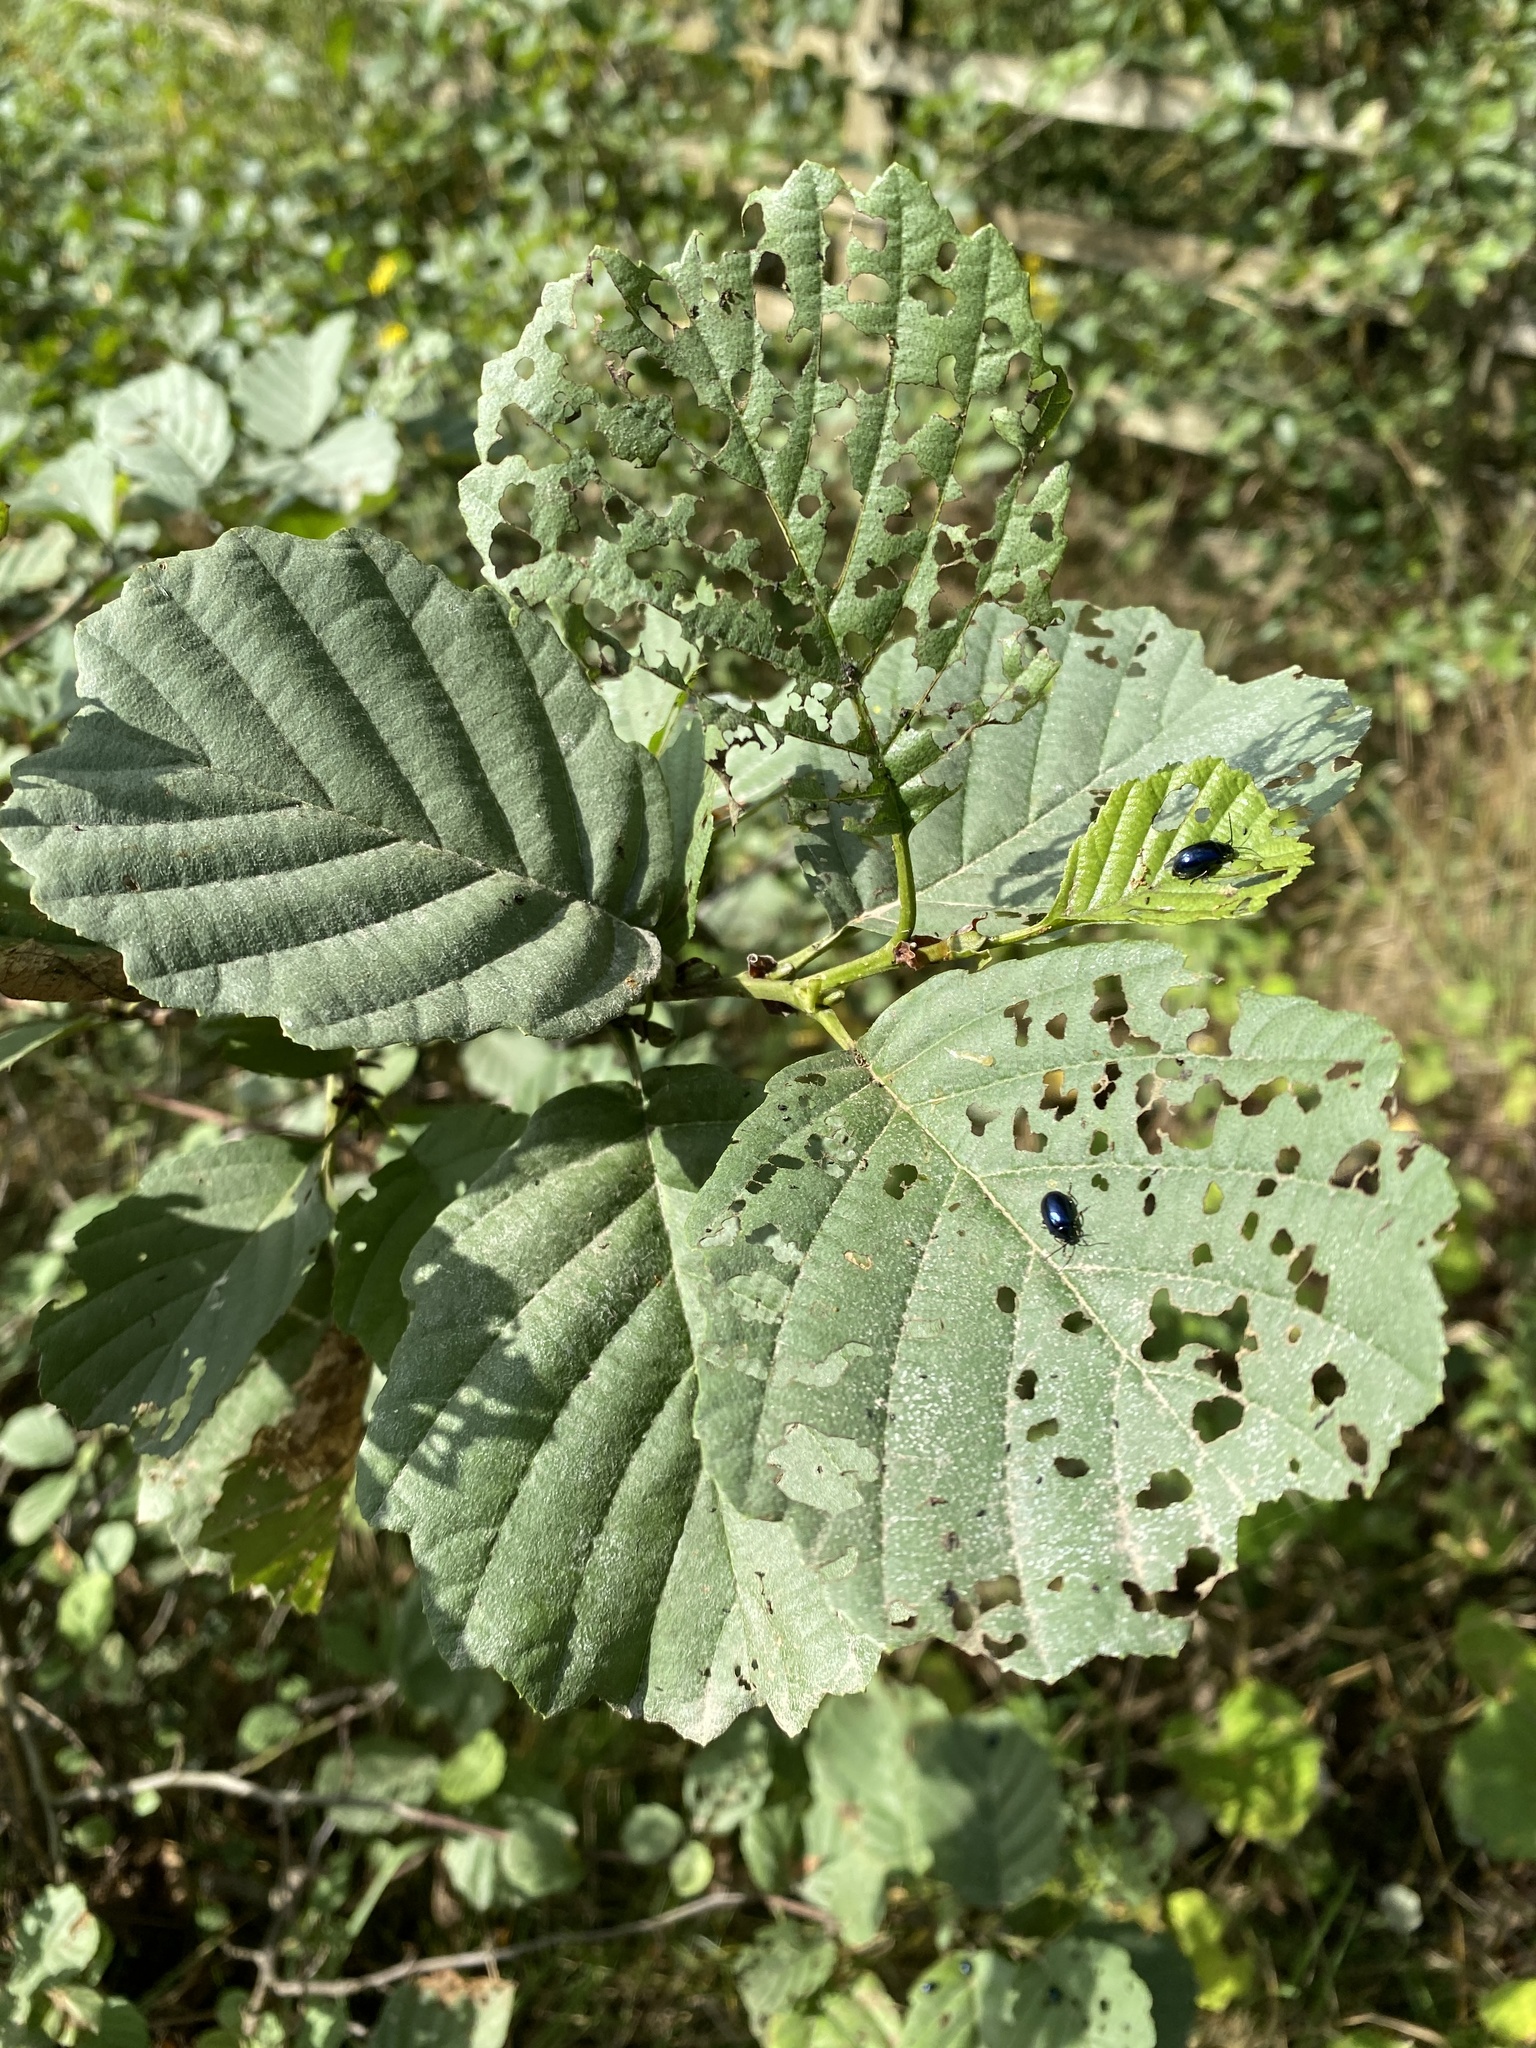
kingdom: Plantae
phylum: Tracheophyta
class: Magnoliopsida
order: Fagales
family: Betulaceae
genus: Alnus
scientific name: Alnus glutinosa
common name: Black alder
